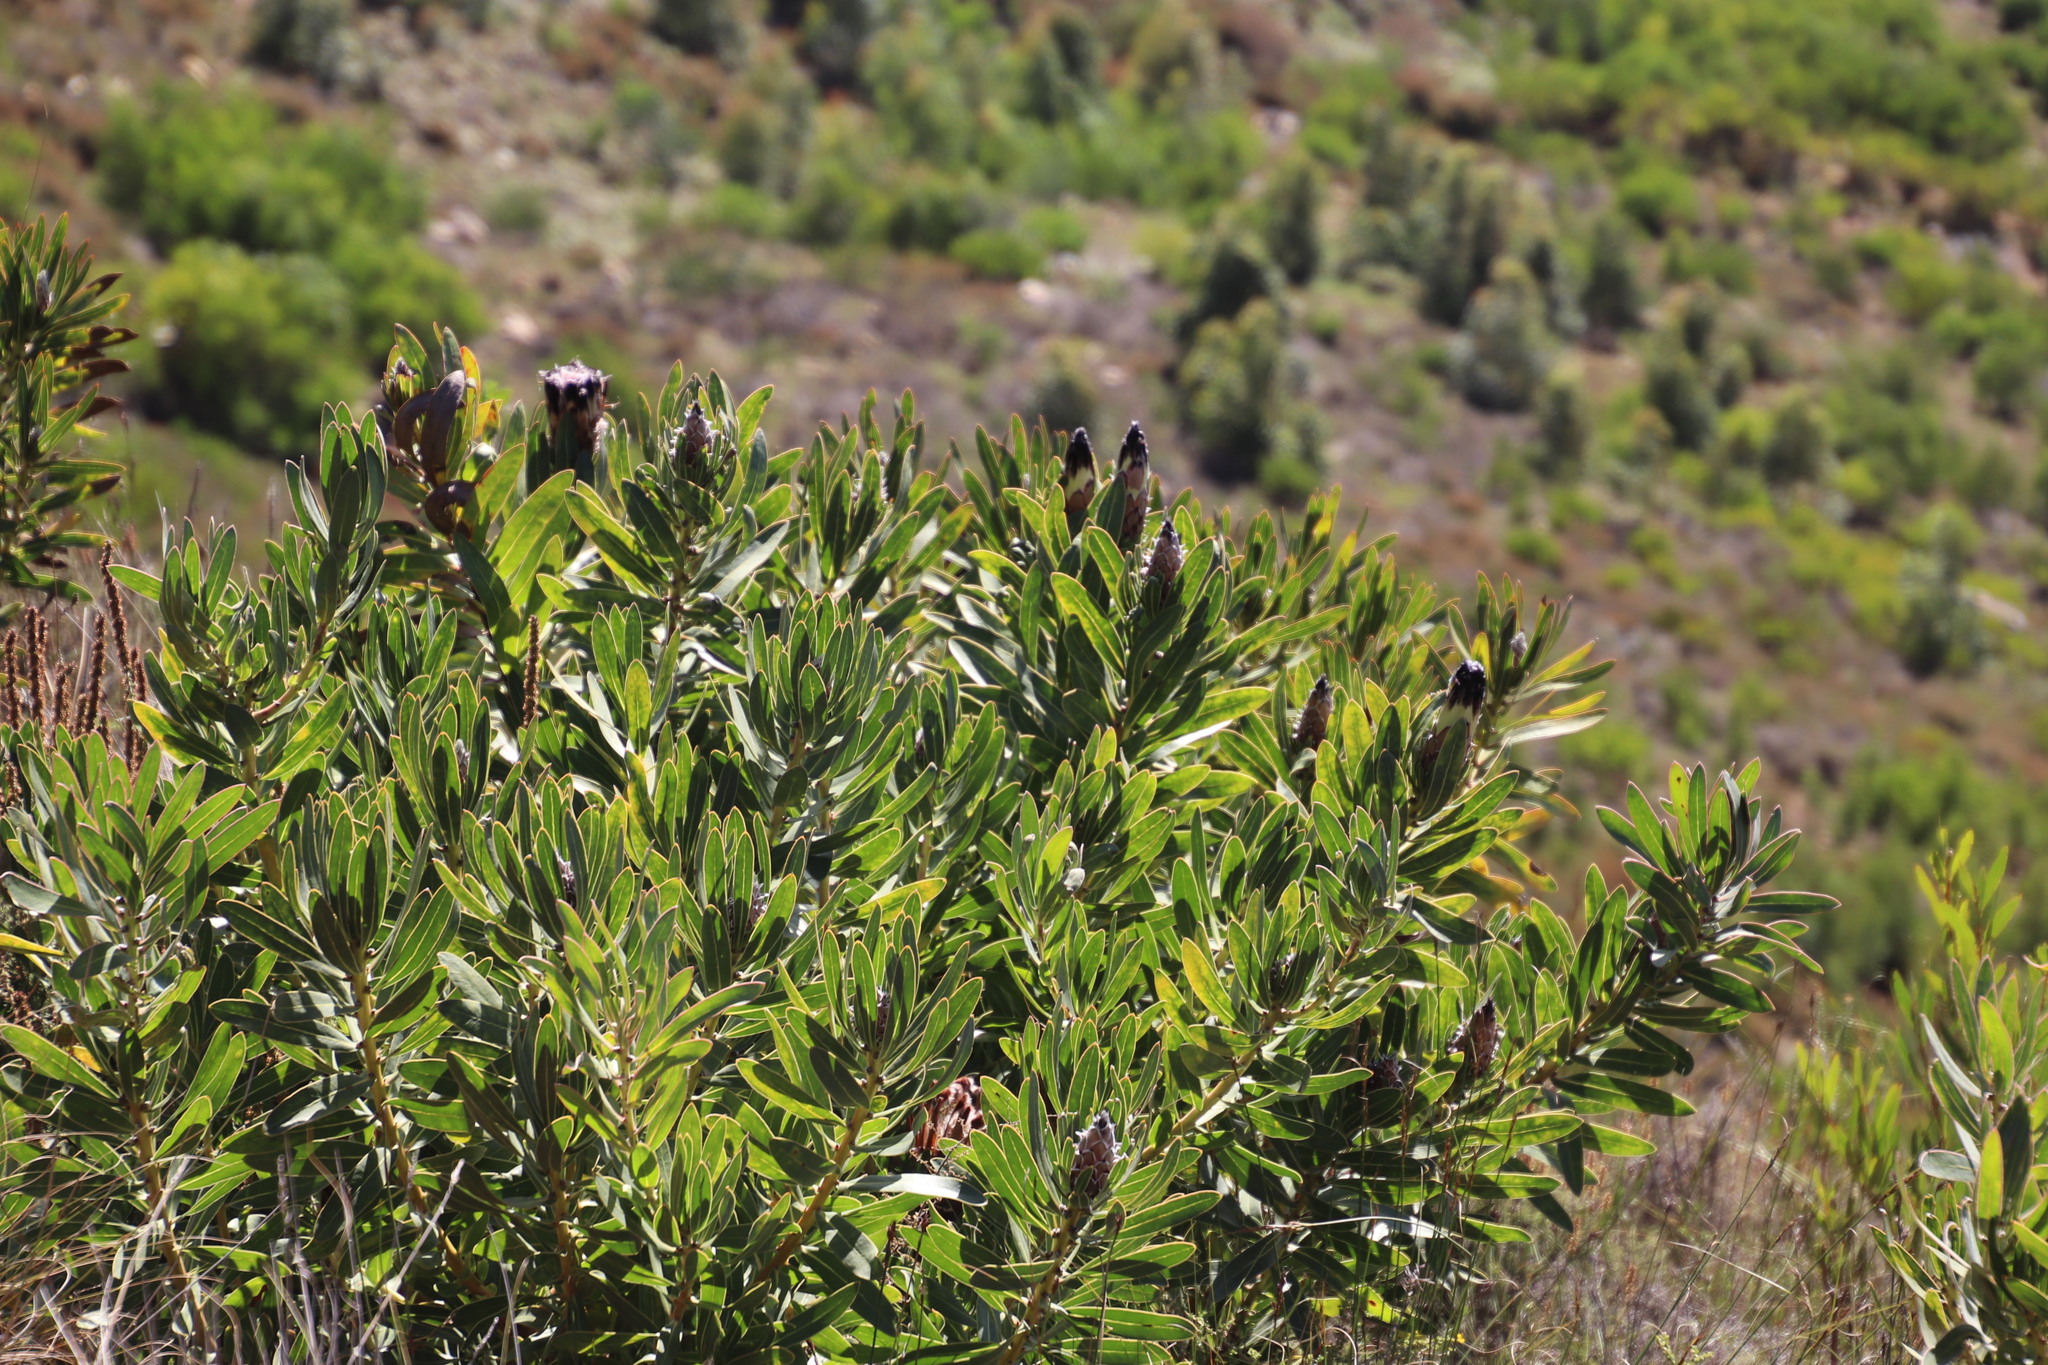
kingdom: Plantae
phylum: Tracheophyta
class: Magnoliopsida
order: Proteales
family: Proteaceae
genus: Protea
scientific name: Protea lepidocarpodendron
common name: Black-bearded protea
